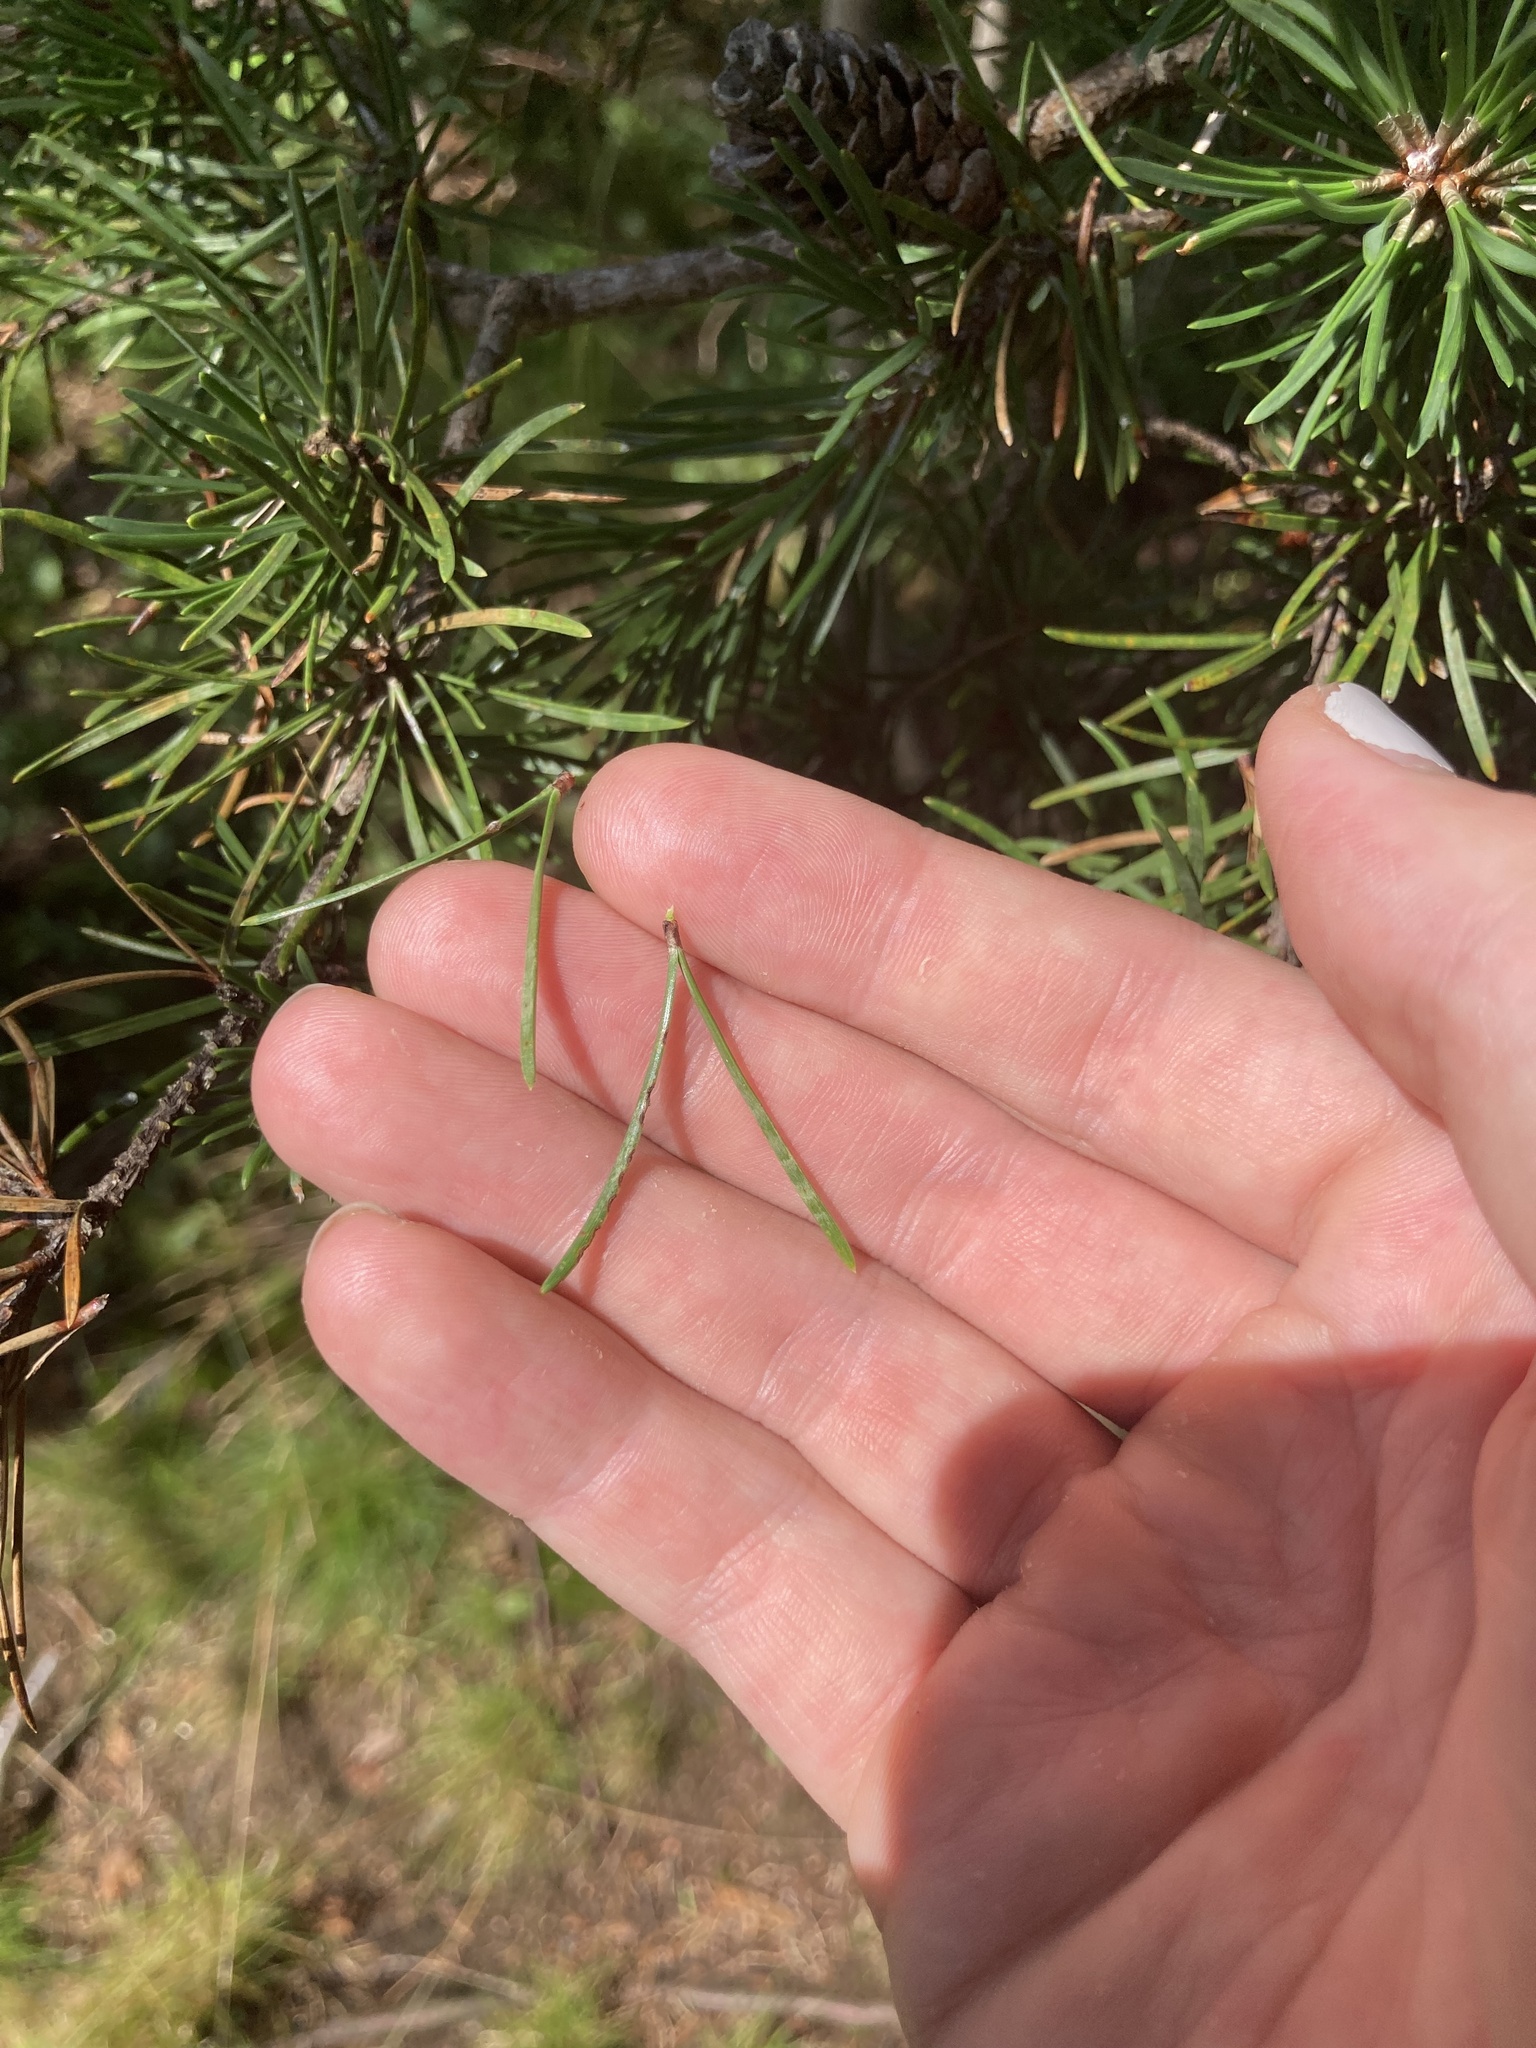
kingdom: Plantae
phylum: Tracheophyta
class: Pinopsida
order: Pinales
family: Pinaceae
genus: Pinus
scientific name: Pinus banksiana
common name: Jack pine
